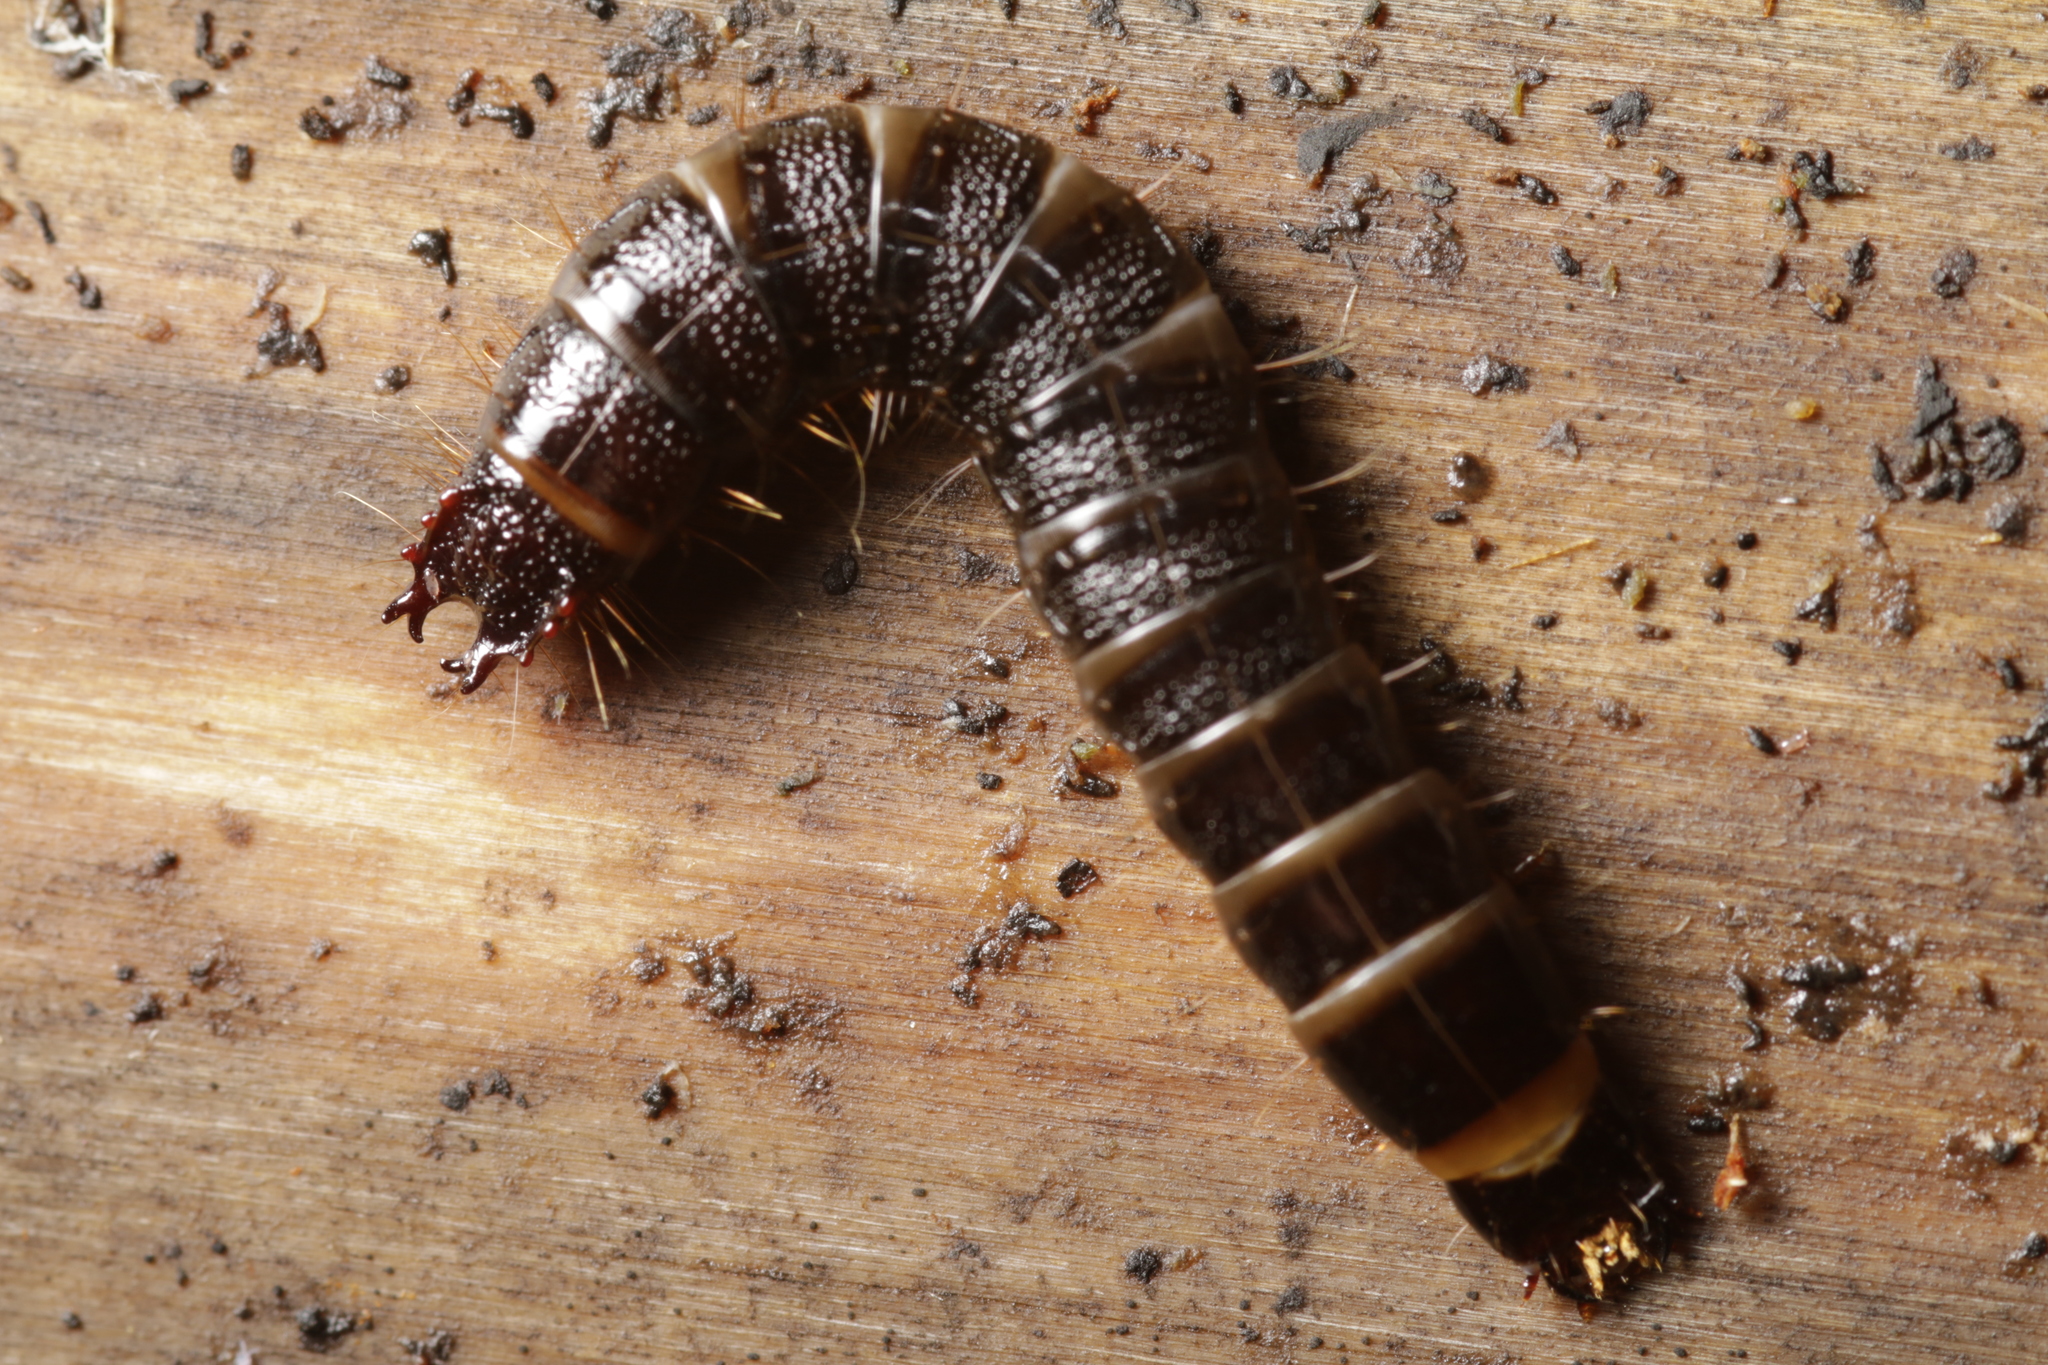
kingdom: Animalia
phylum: Arthropoda
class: Insecta
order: Coleoptera
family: Elateridae
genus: Stenagostus
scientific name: Stenagostus rhombeus
